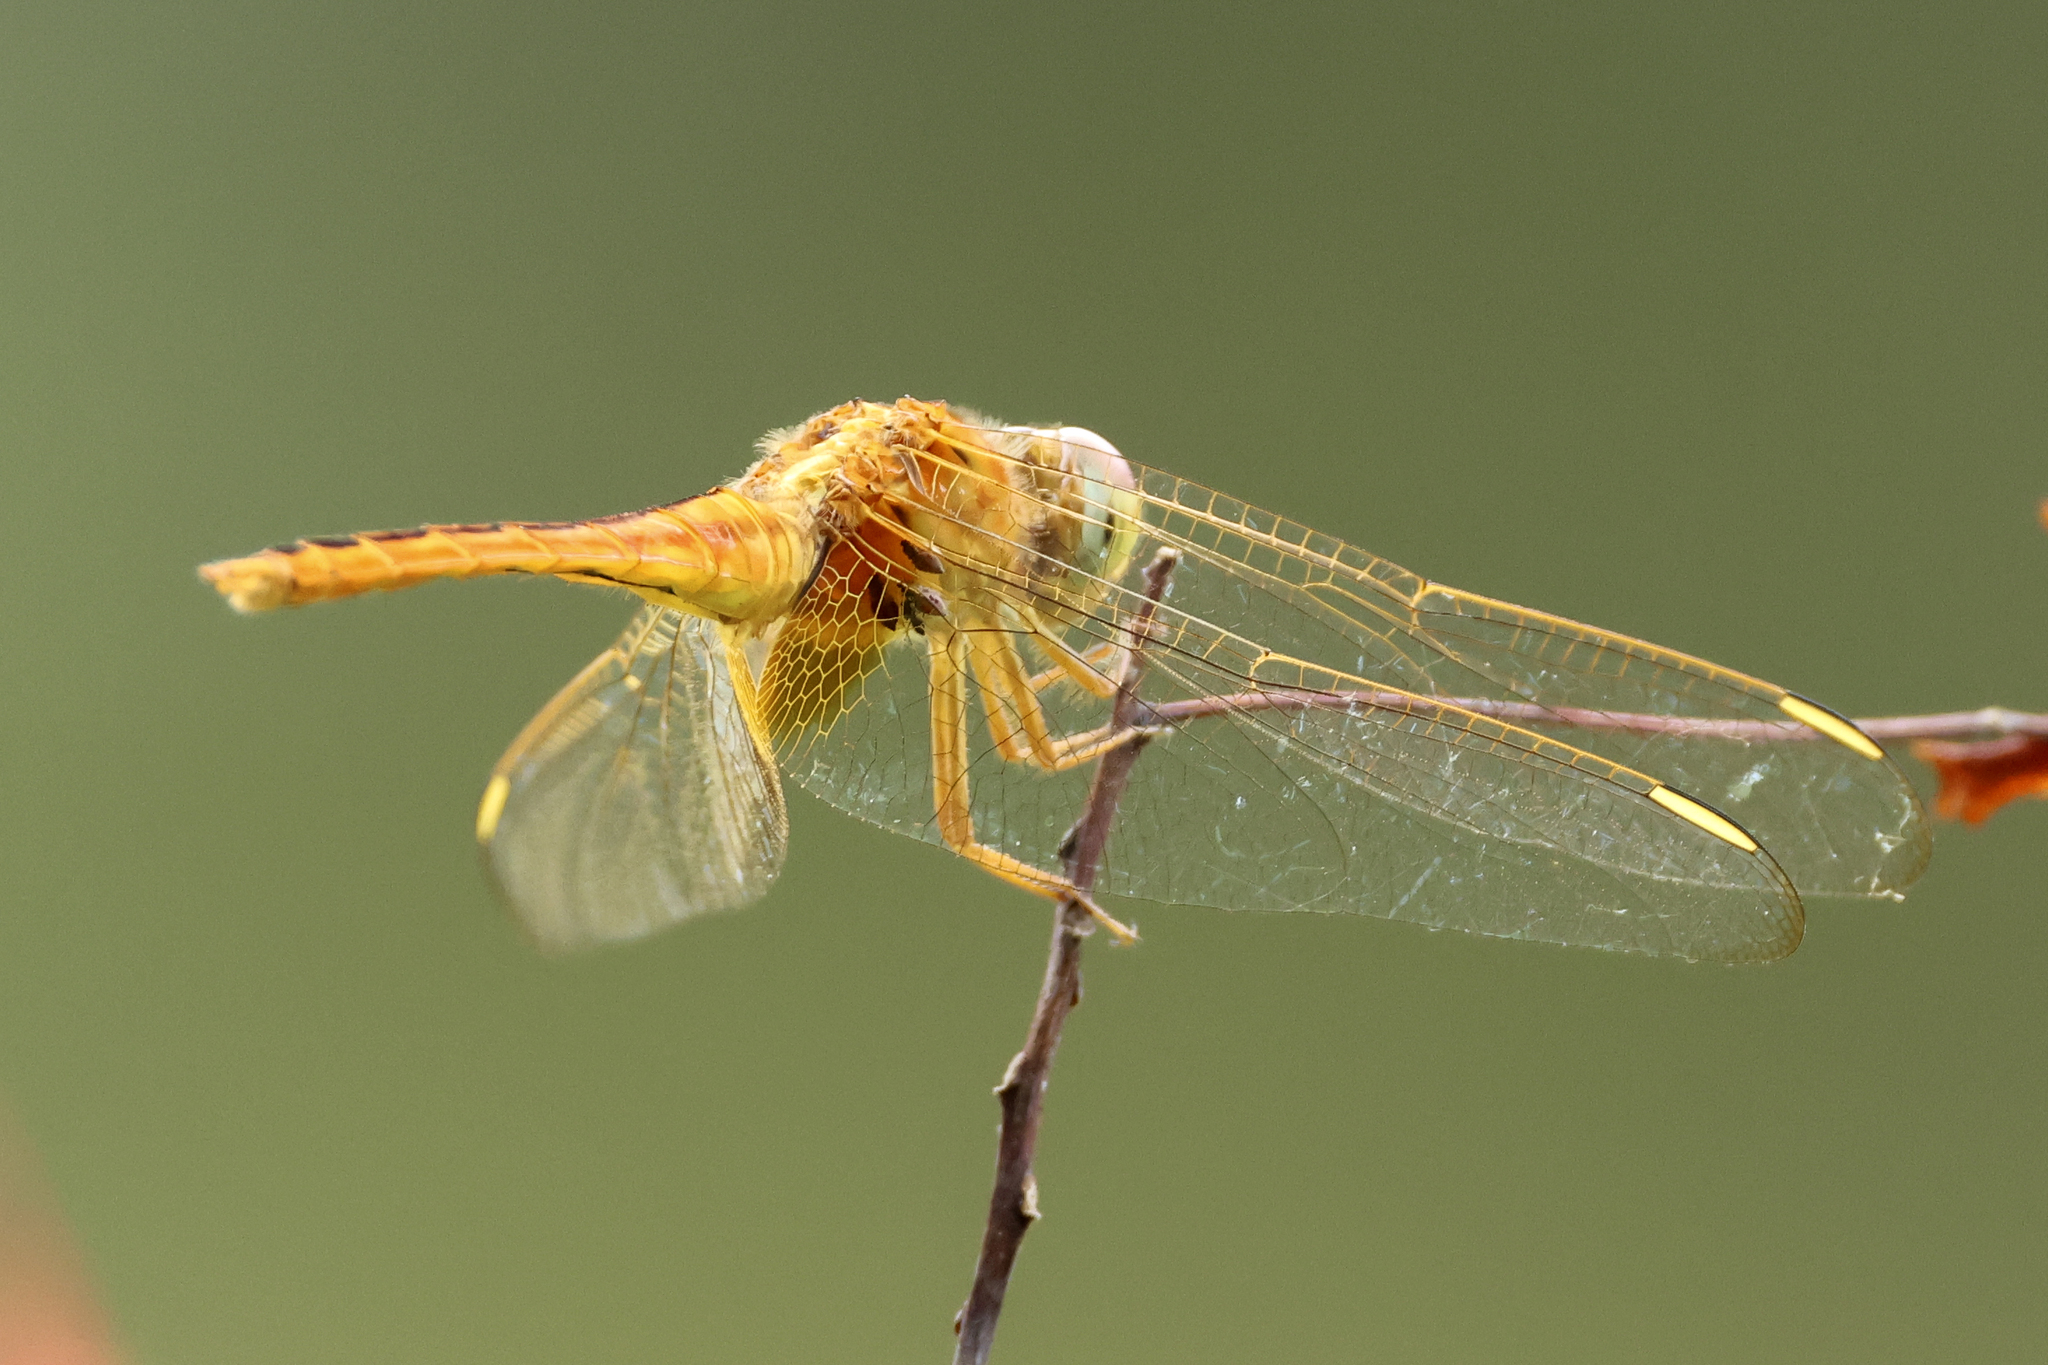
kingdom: Animalia
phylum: Arthropoda
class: Insecta
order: Odonata
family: Libellulidae
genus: Crocothemis
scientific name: Crocothemis servilia
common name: Scarlet skimmer
